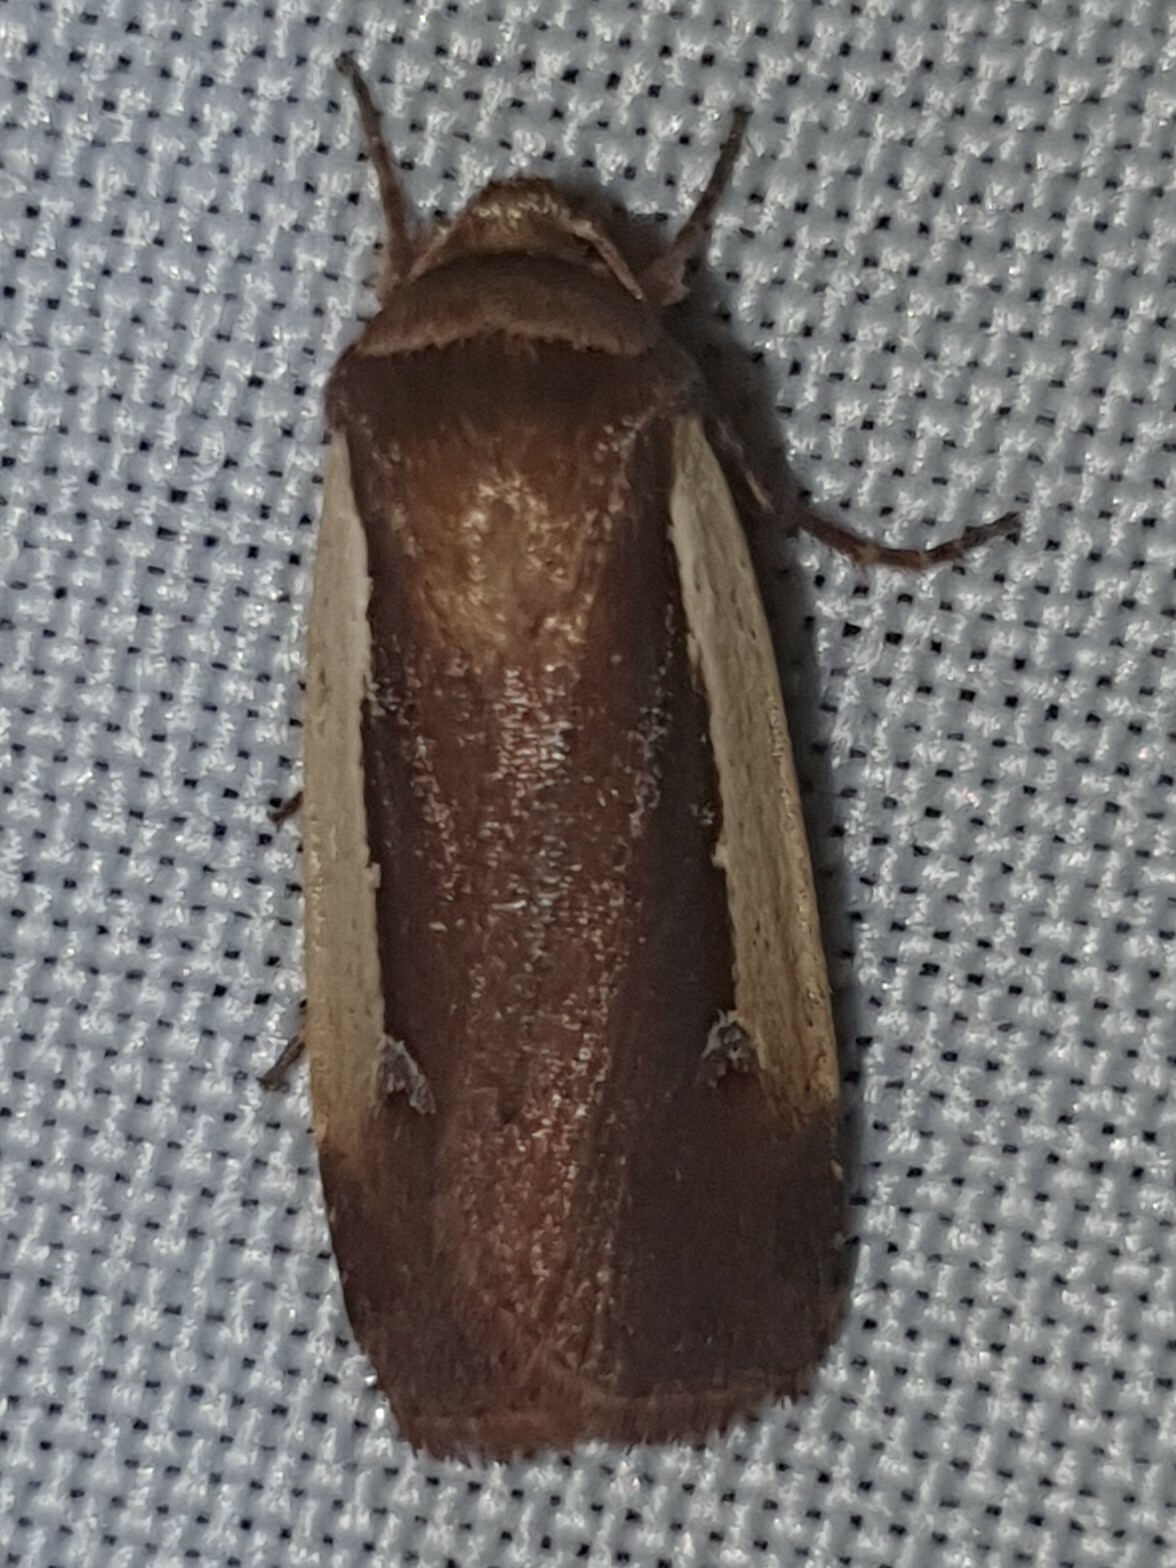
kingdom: Animalia
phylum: Arthropoda
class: Insecta
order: Lepidoptera
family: Noctuidae
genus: Ochropleura
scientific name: Ochropleura plecta
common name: Flame shoulder
